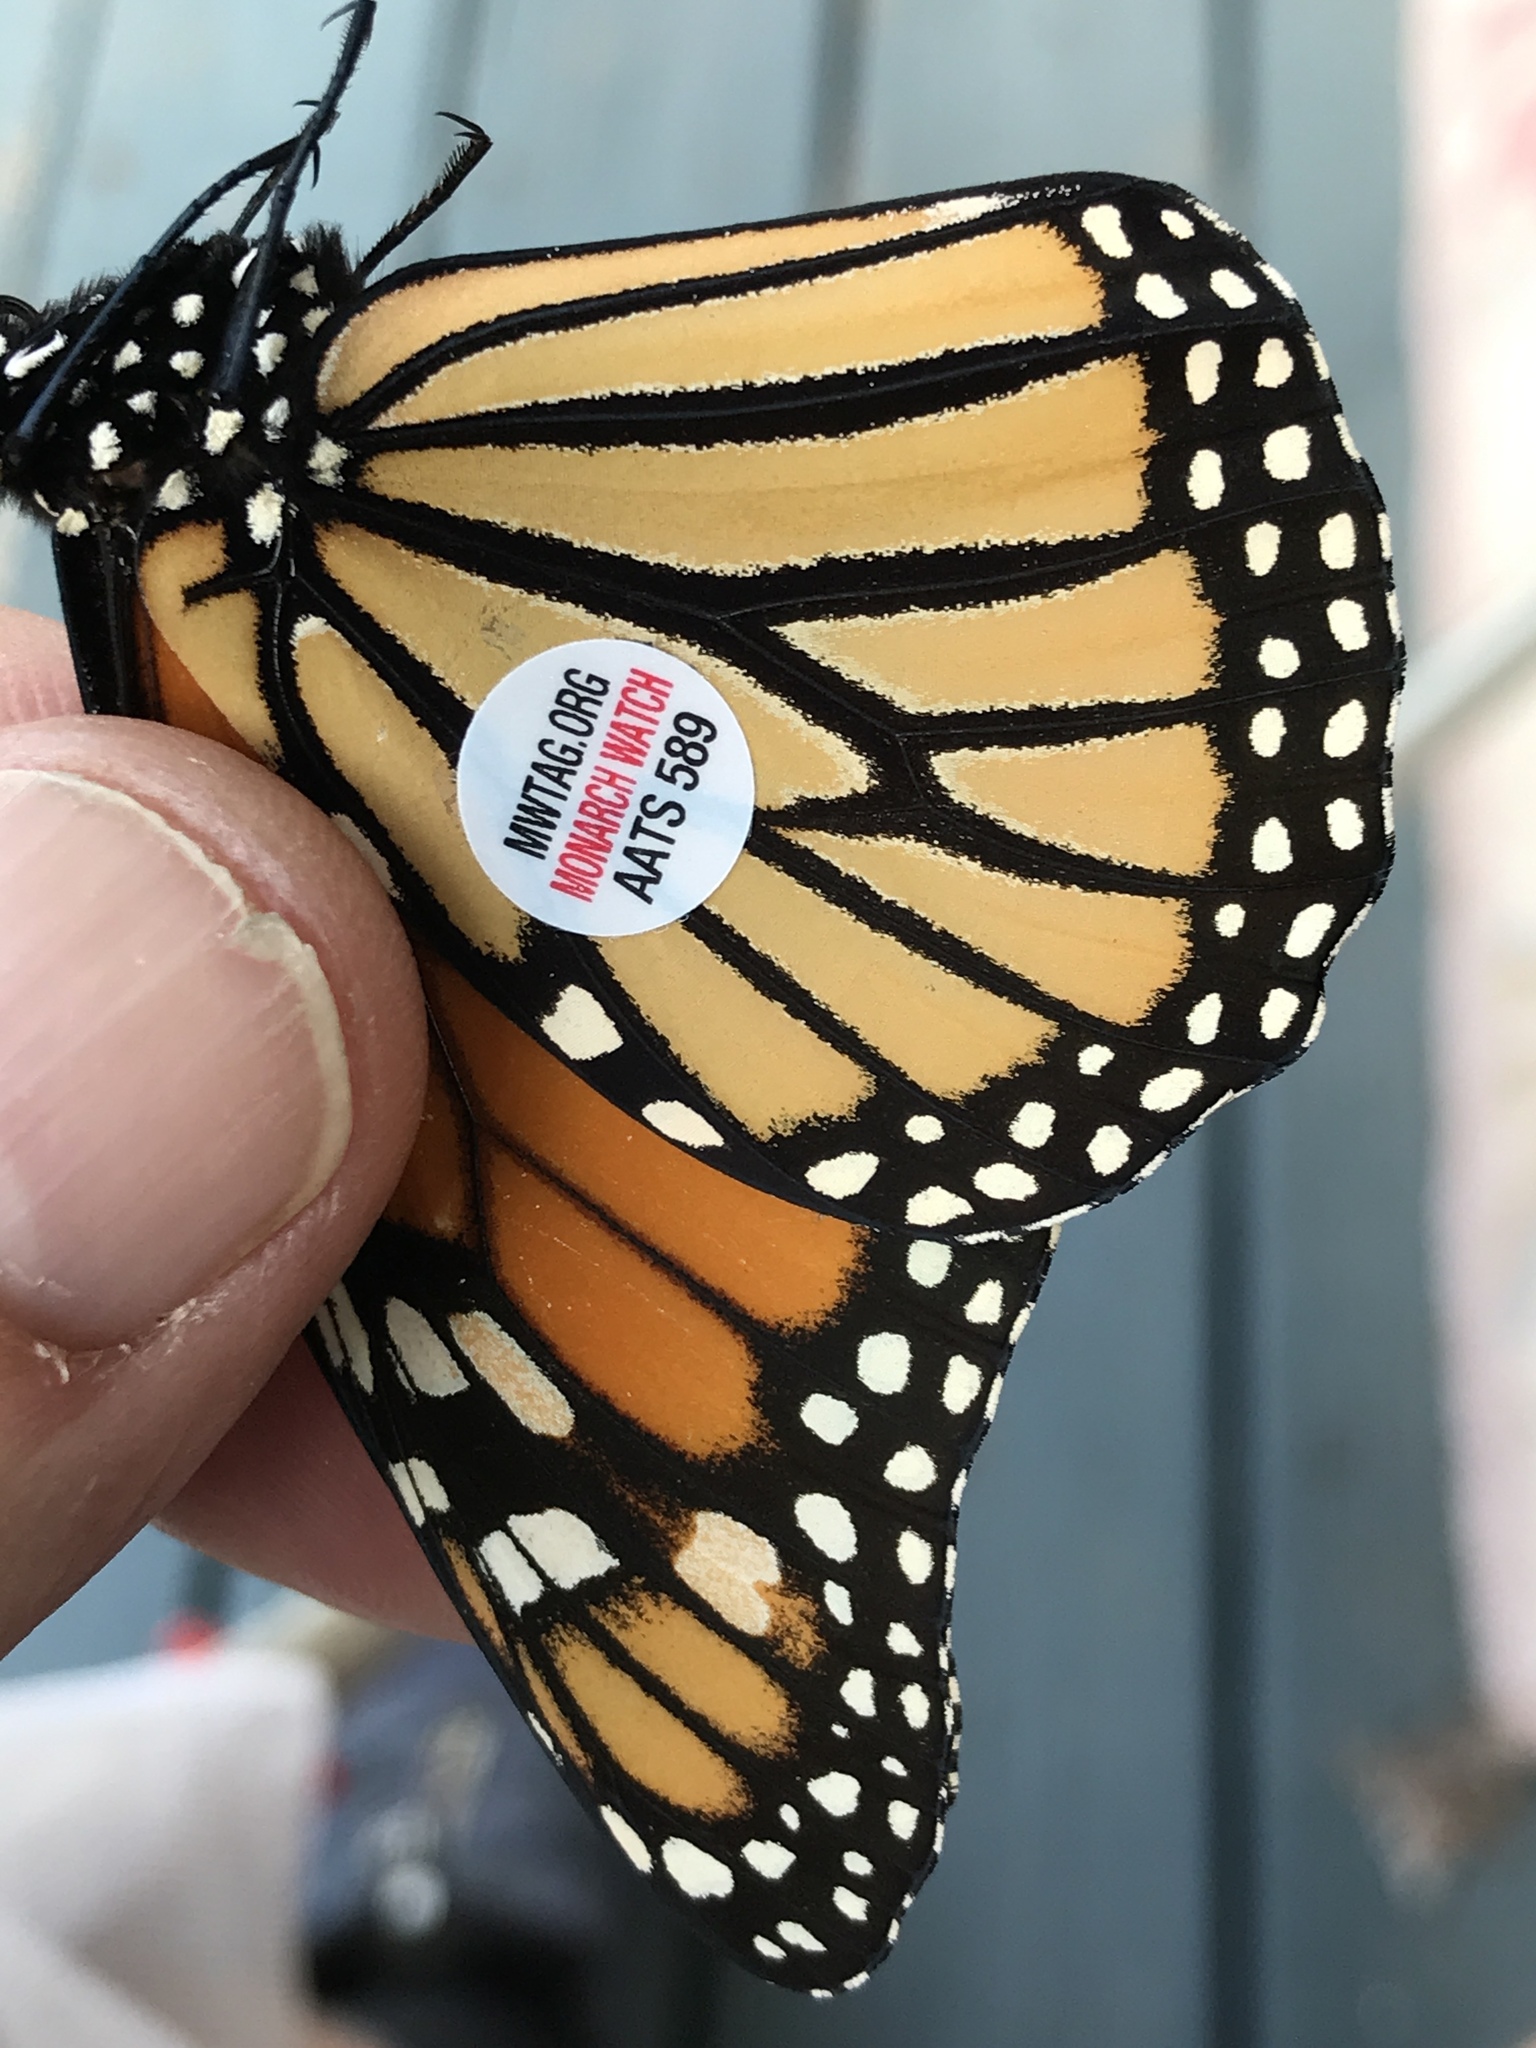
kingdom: Animalia
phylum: Arthropoda
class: Insecta
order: Lepidoptera
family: Nymphalidae
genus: Danaus
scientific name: Danaus plexippus
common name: Monarch
